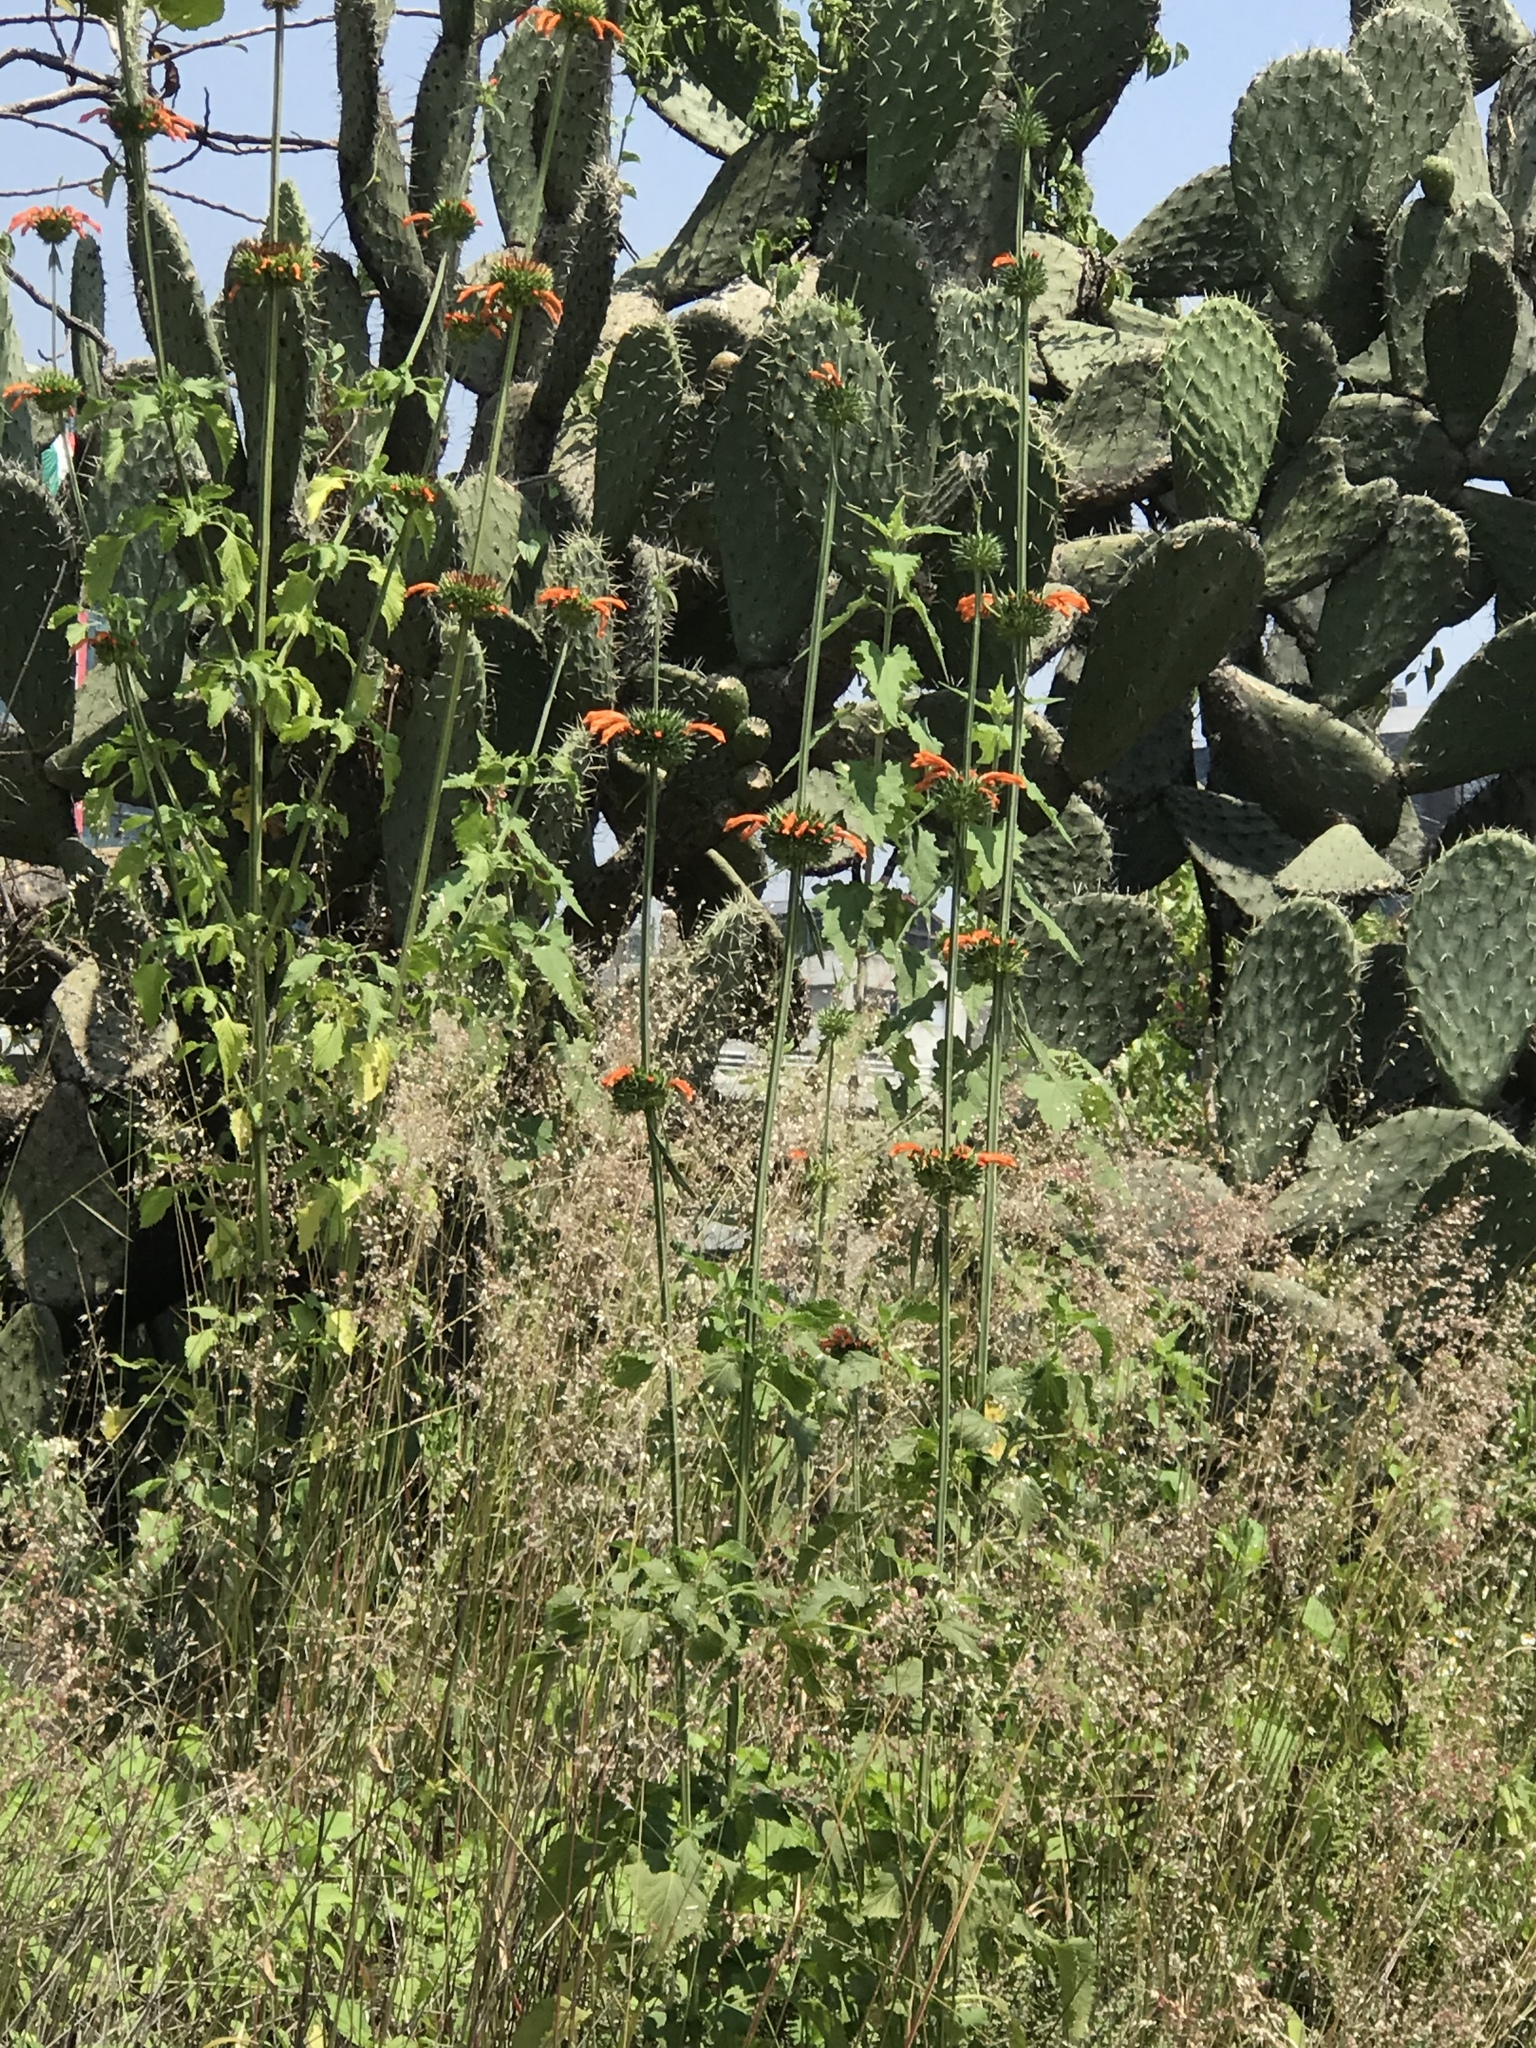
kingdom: Plantae
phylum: Tracheophyta
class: Magnoliopsida
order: Lamiales
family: Lamiaceae
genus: Leonotis
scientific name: Leonotis nepetifolia
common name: Christmas candlestick
